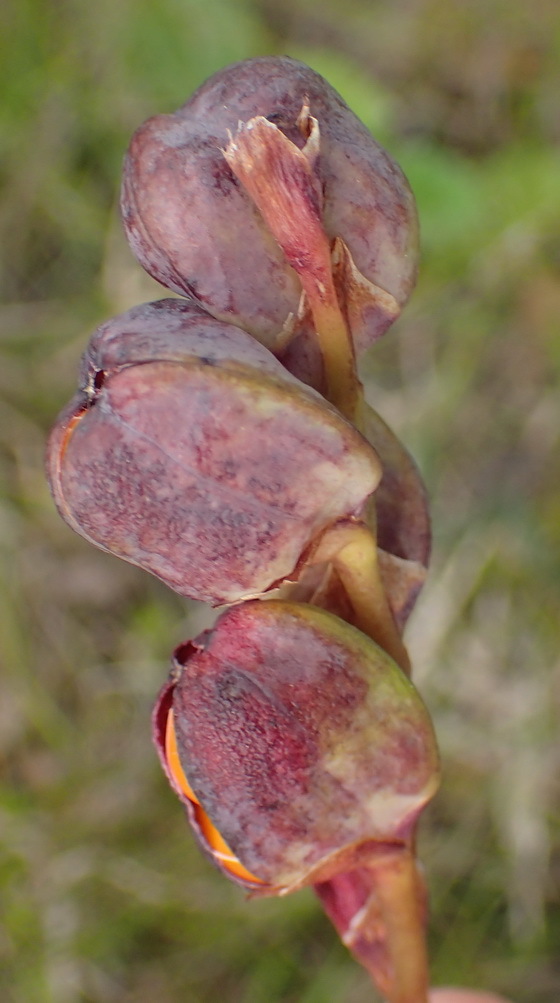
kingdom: Plantae
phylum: Tracheophyta
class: Liliopsida
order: Asparagales
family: Iridaceae
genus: Chasmanthe
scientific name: Chasmanthe aethiopica
